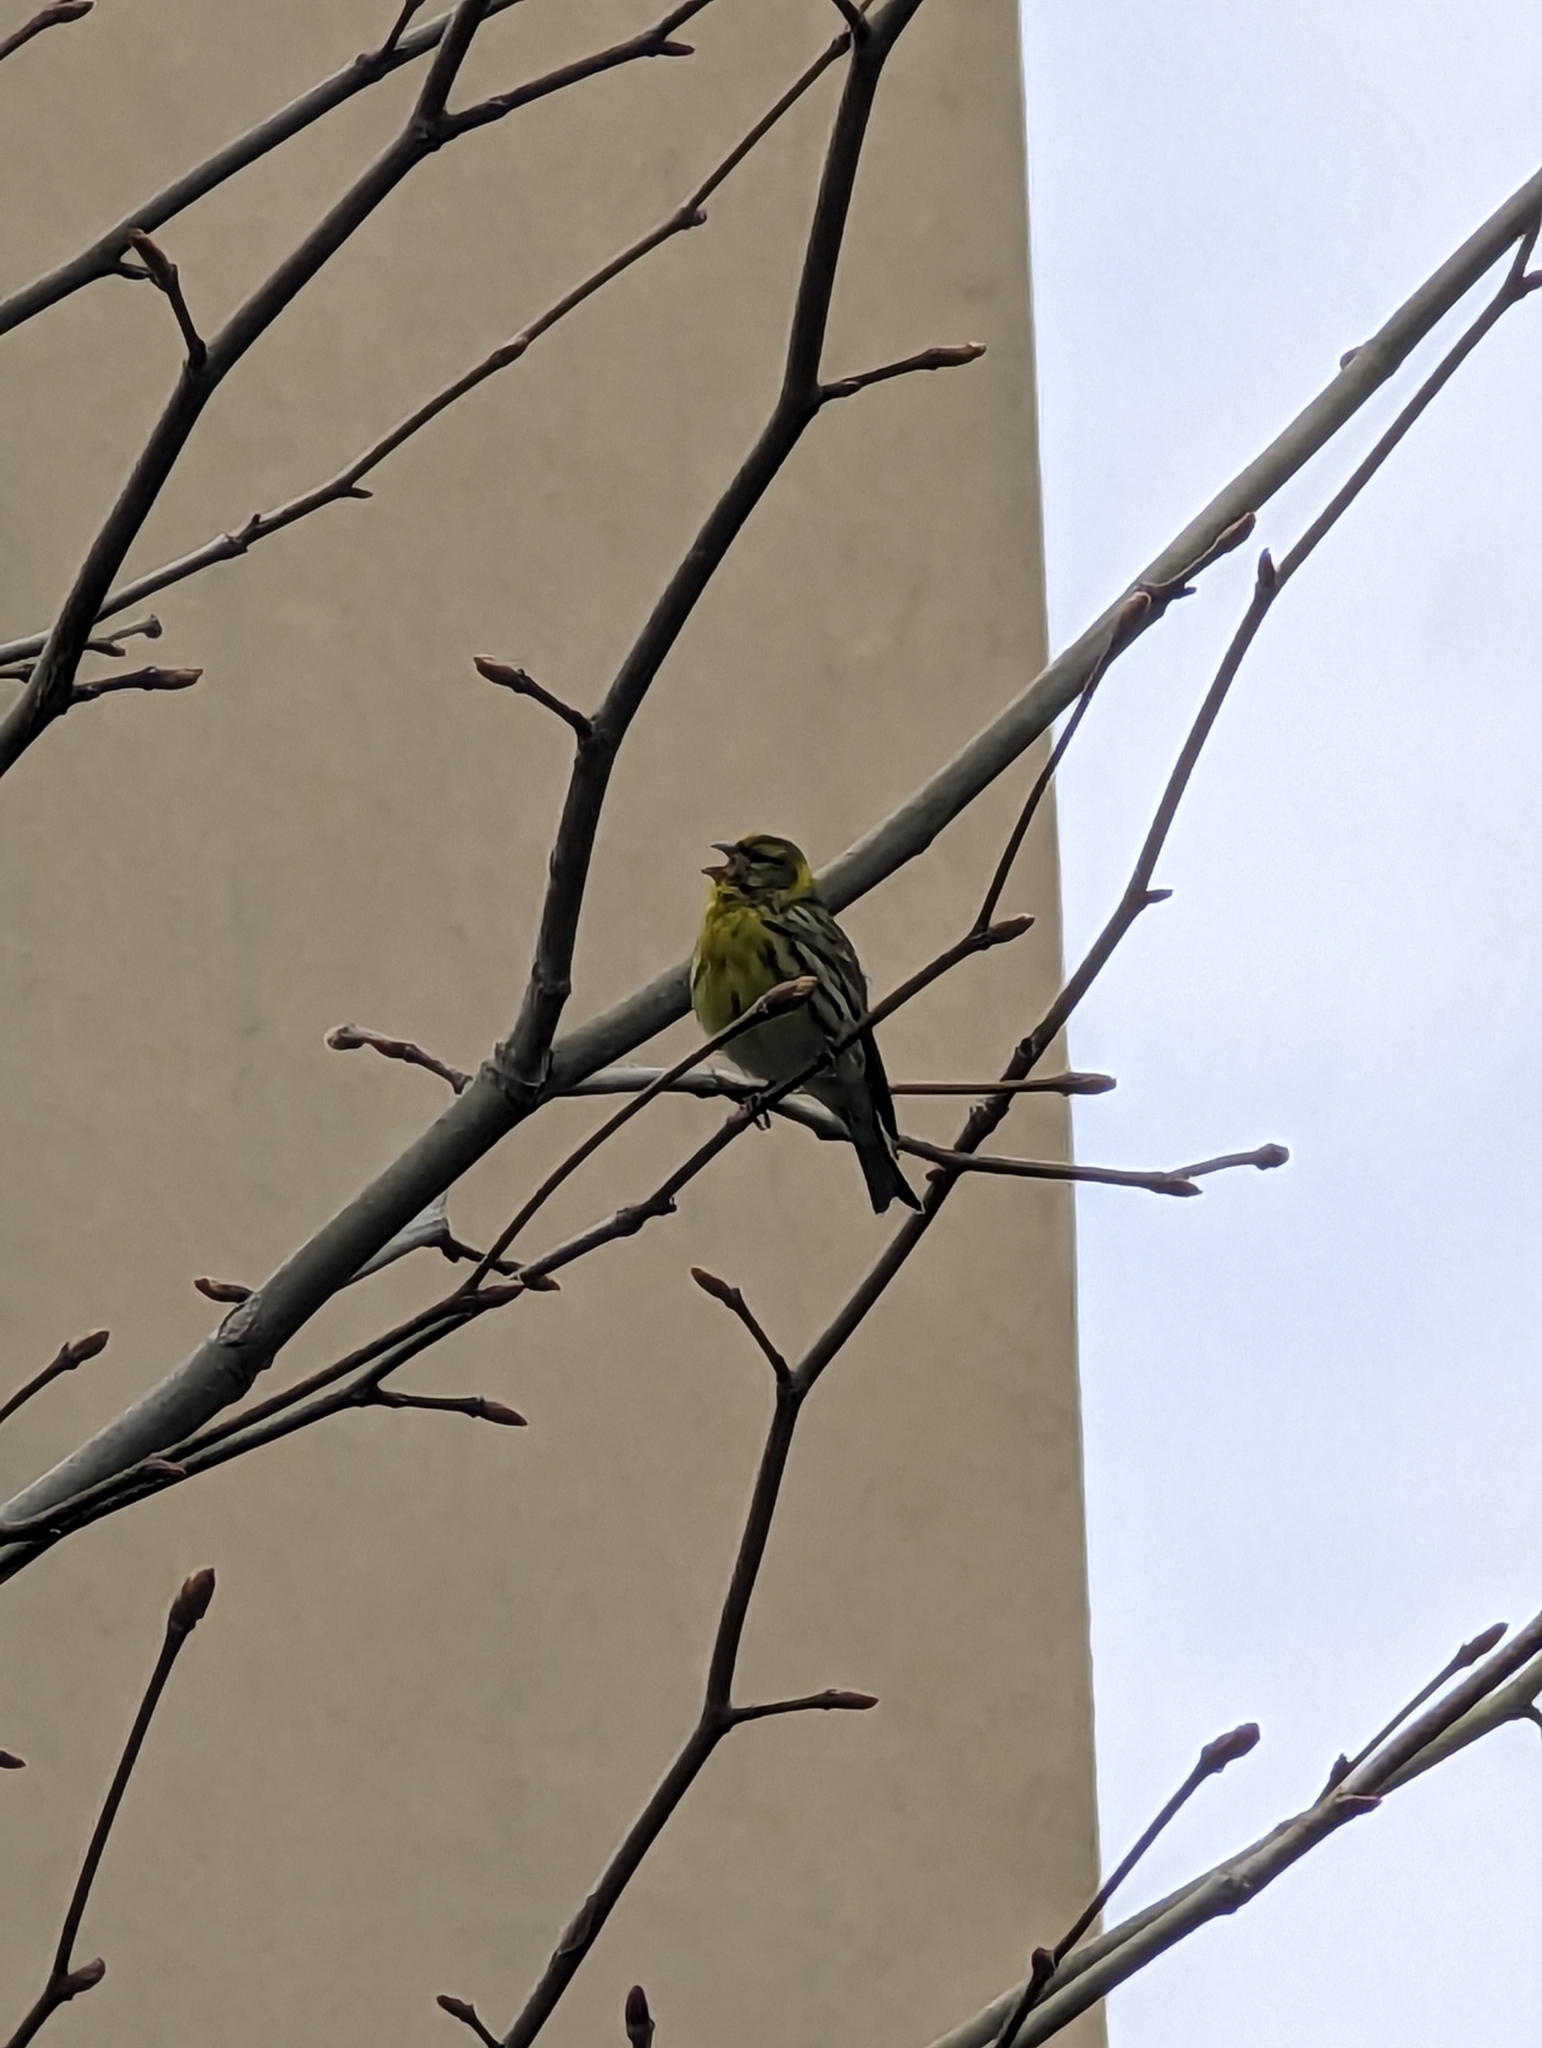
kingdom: Animalia
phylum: Chordata
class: Aves
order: Passeriformes
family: Fringillidae
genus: Serinus
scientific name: Serinus serinus
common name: European serin
